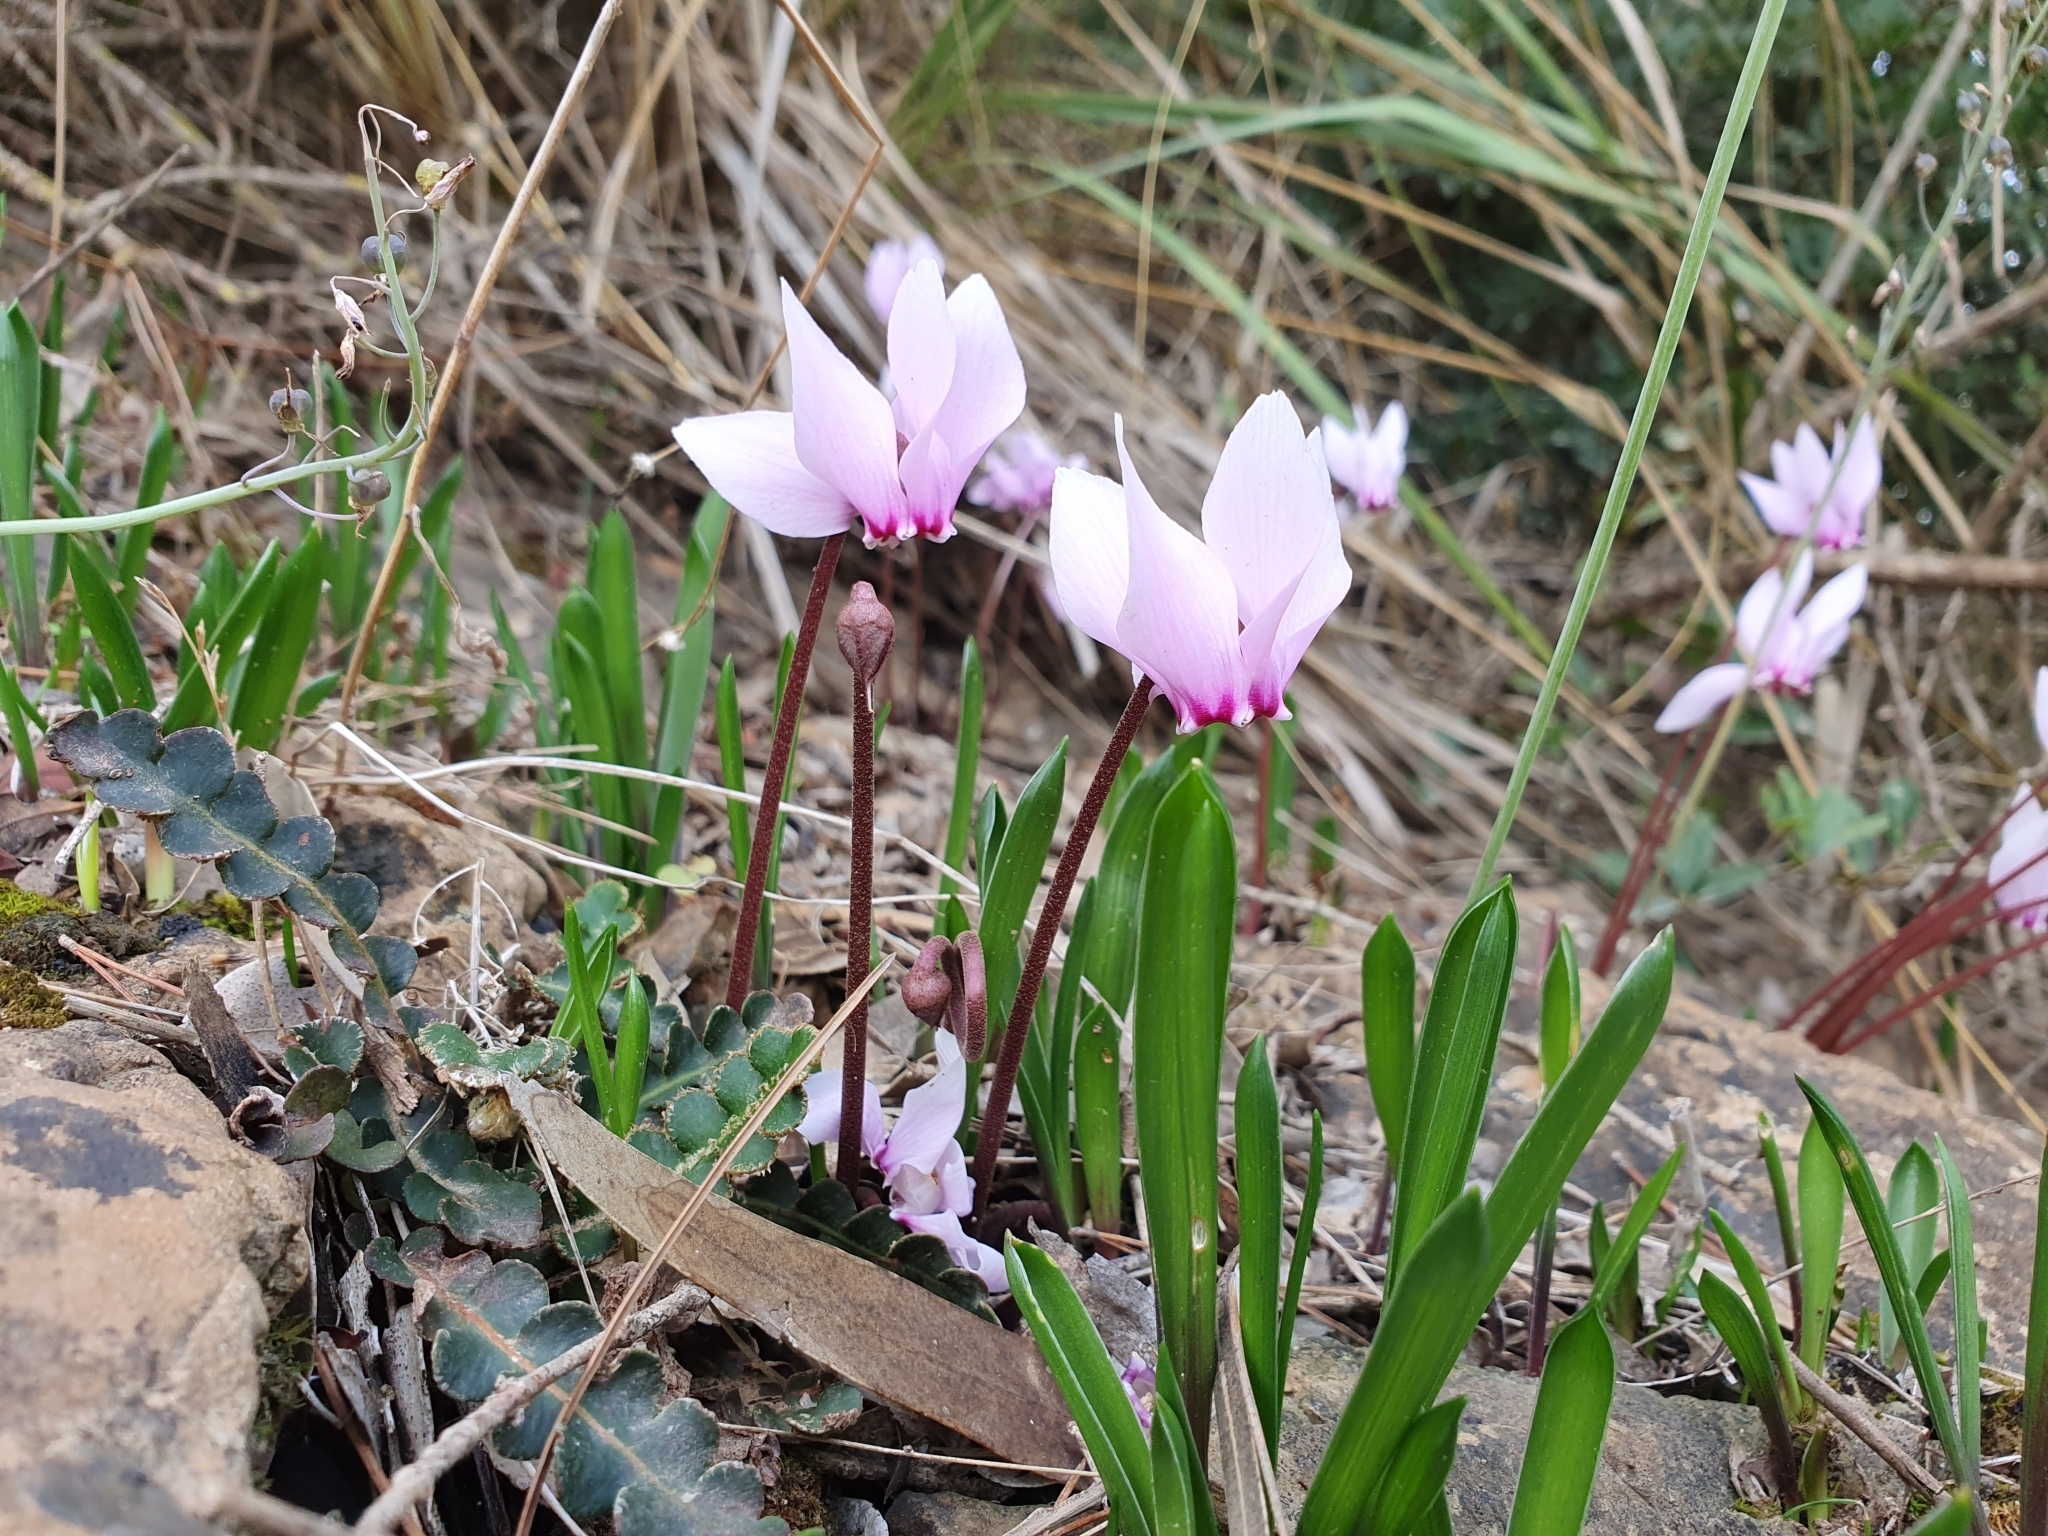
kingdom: Plantae
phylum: Tracheophyta
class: Magnoliopsida
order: Ericales
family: Primulaceae
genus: Cyclamen
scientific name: Cyclamen africanum
